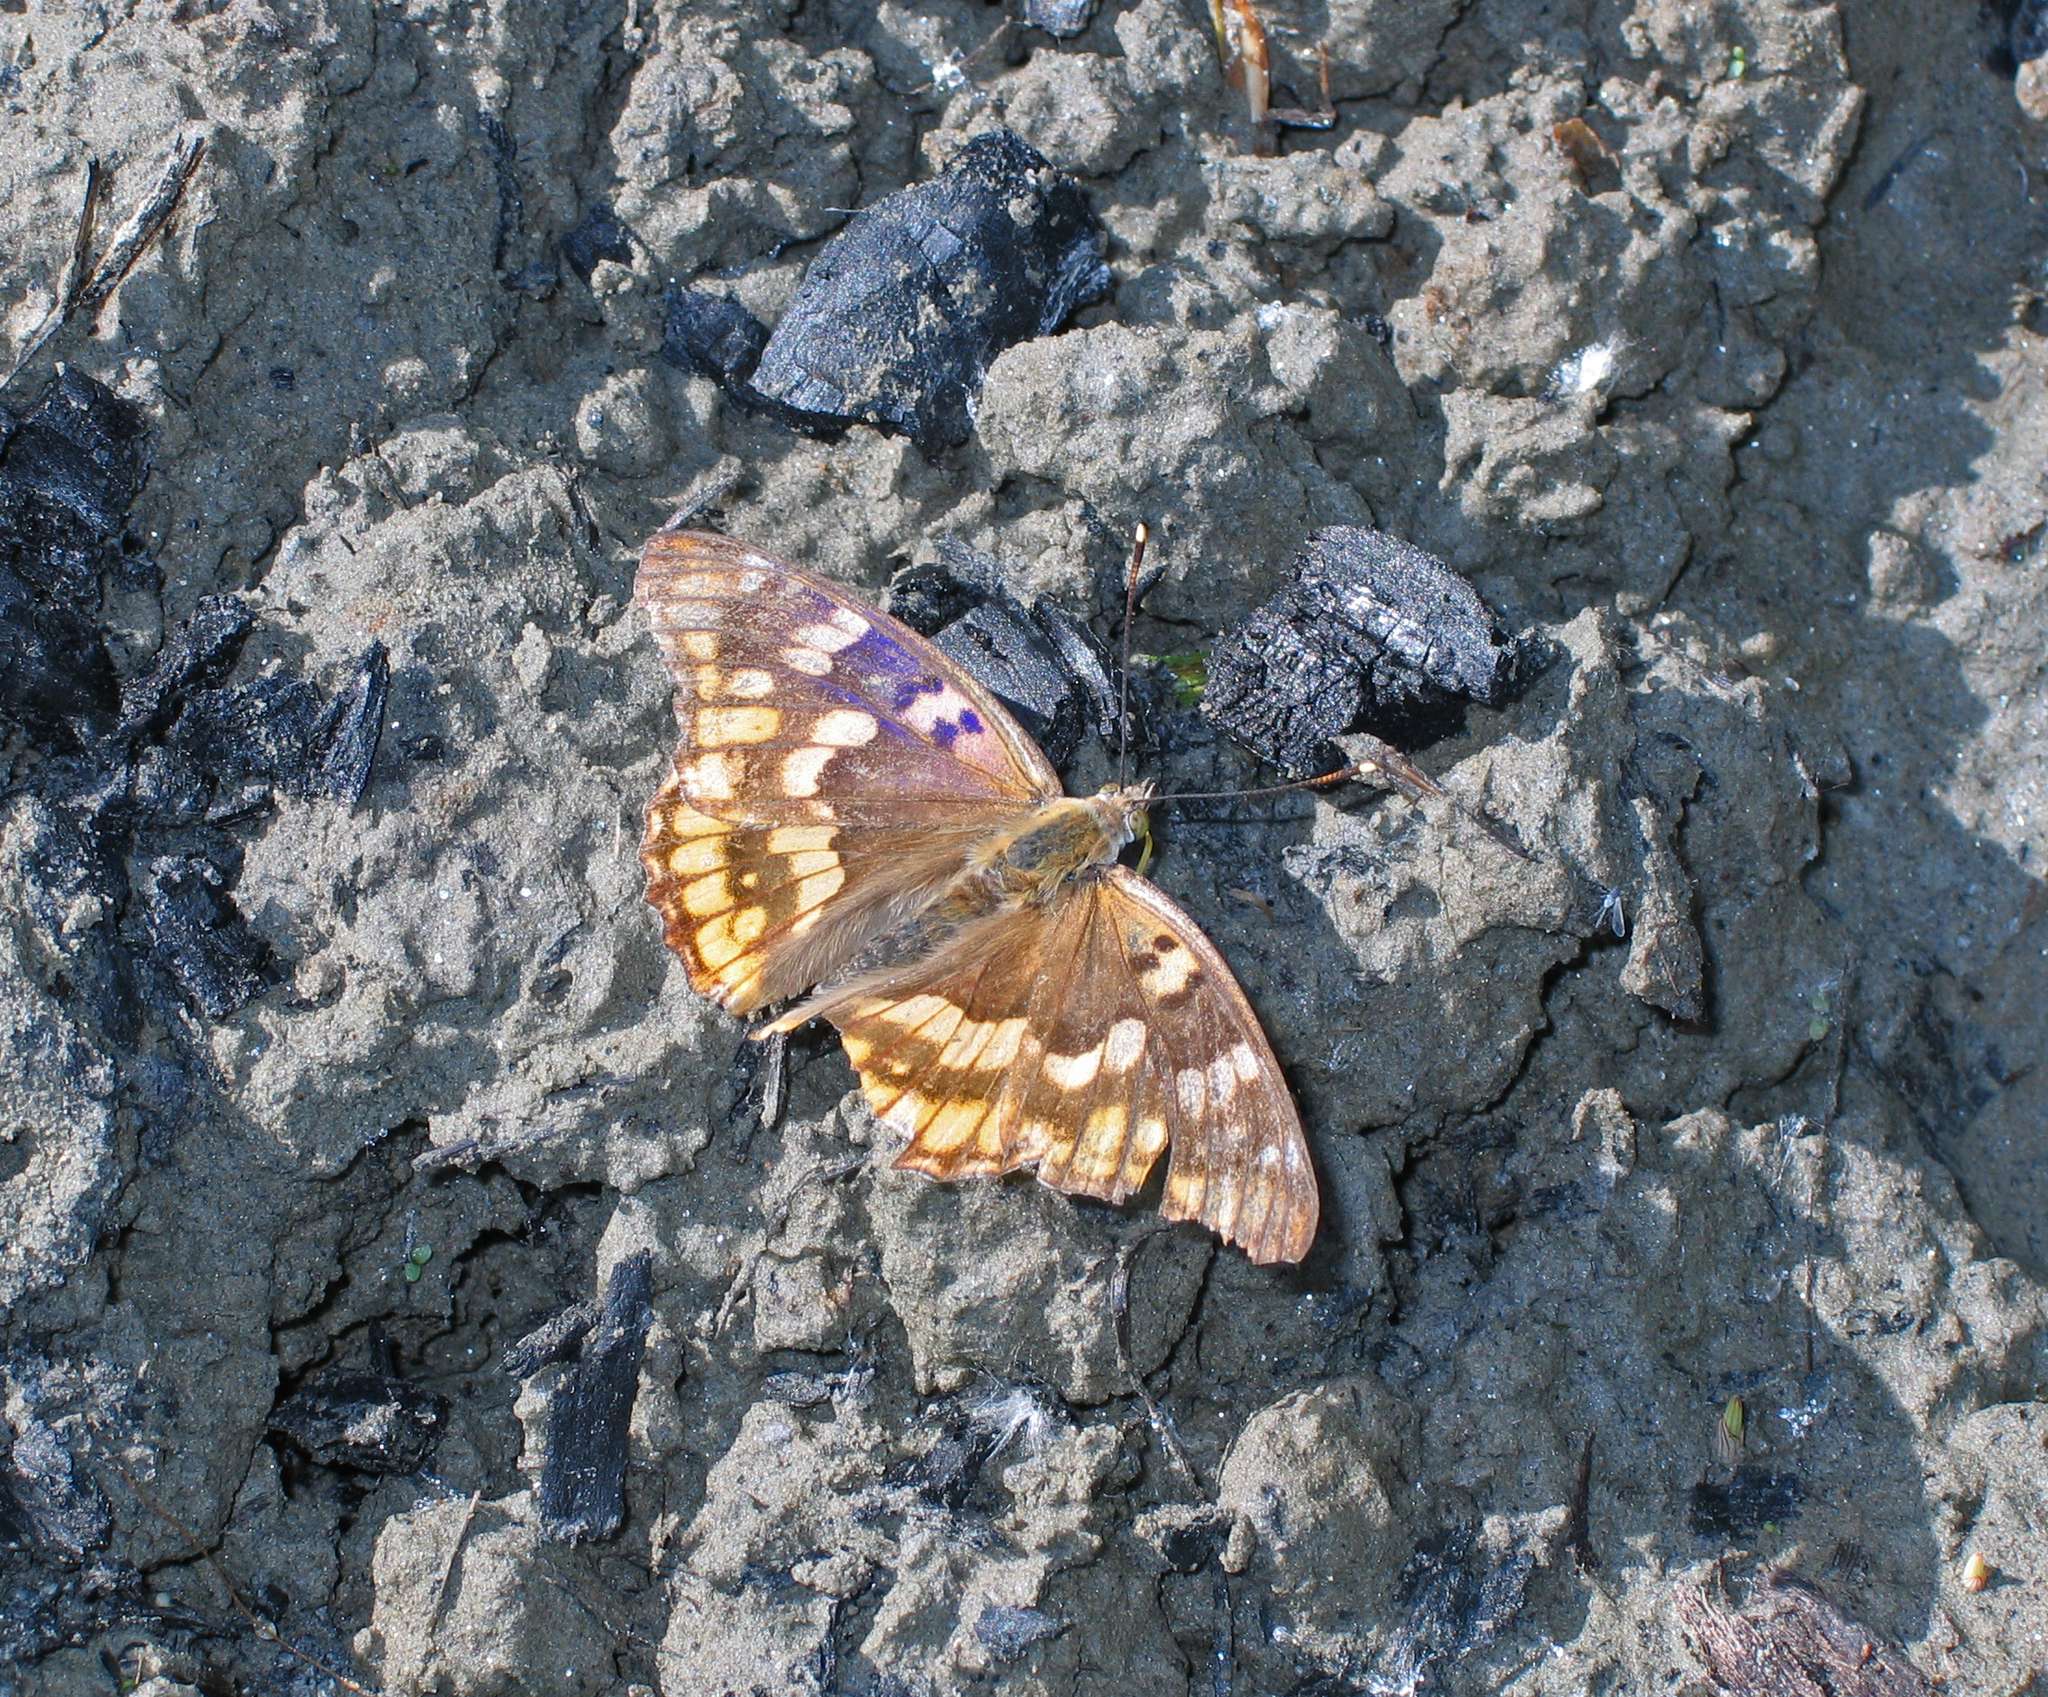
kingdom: Animalia
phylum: Arthropoda
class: Insecta
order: Lepidoptera
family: Nymphalidae
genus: Apatura
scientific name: Apatura ilia
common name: Lesser purple emperor
